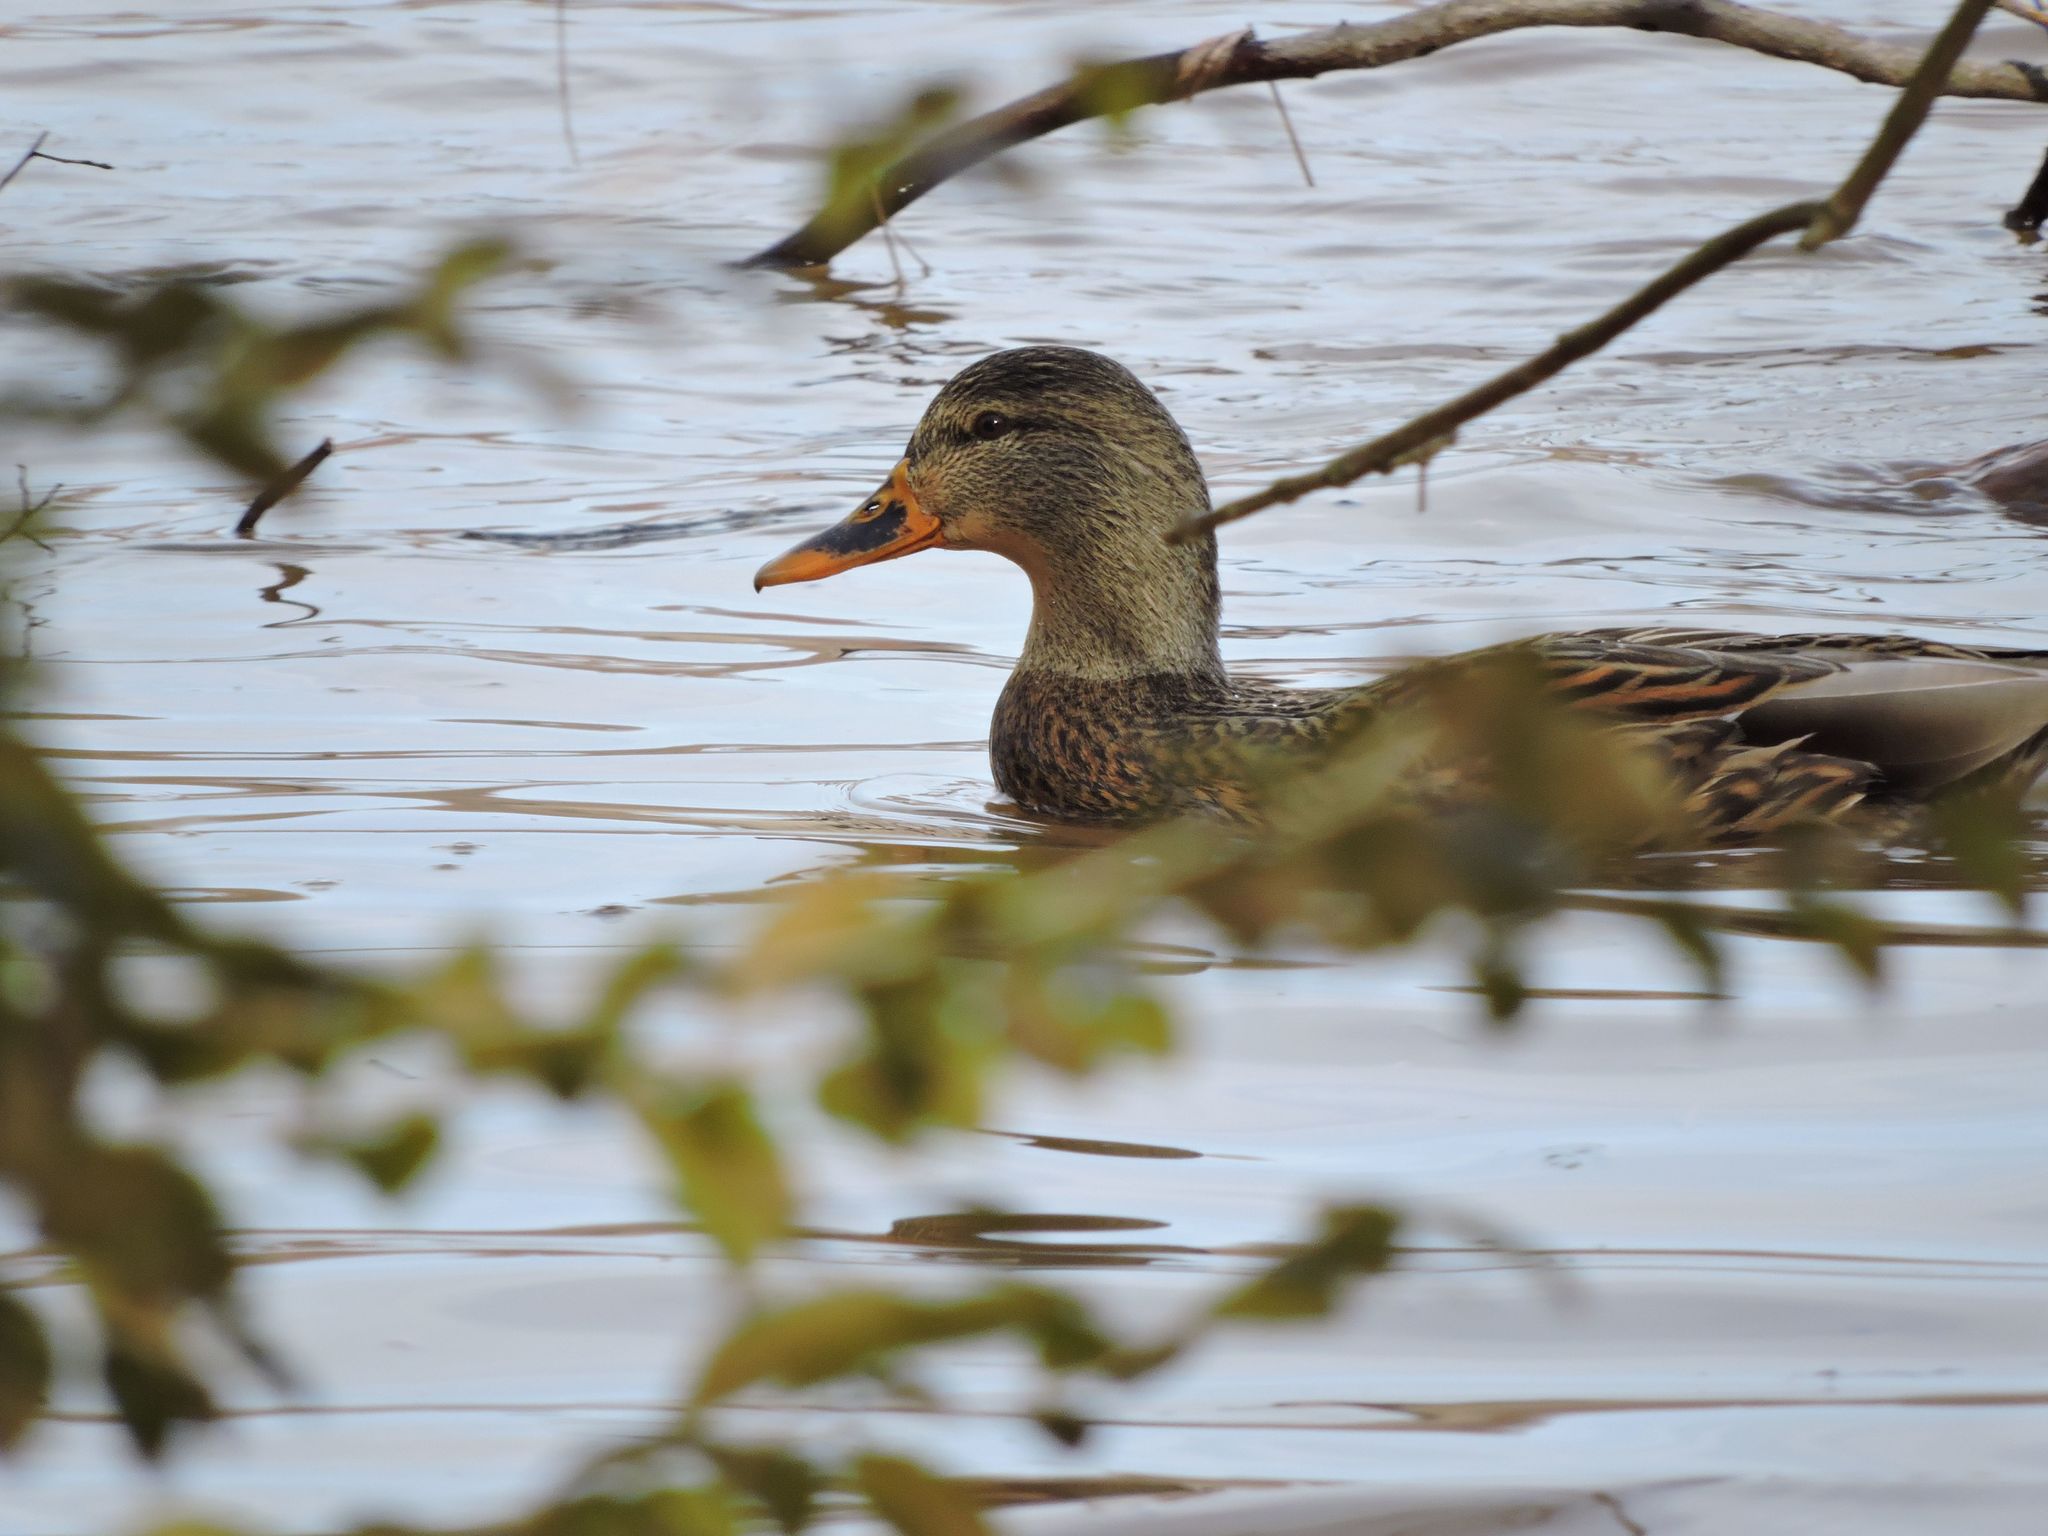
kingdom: Animalia
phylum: Chordata
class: Aves
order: Anseriformes
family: Anatidae
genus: Anas
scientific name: Anas platyrhynchos
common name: Mallard
